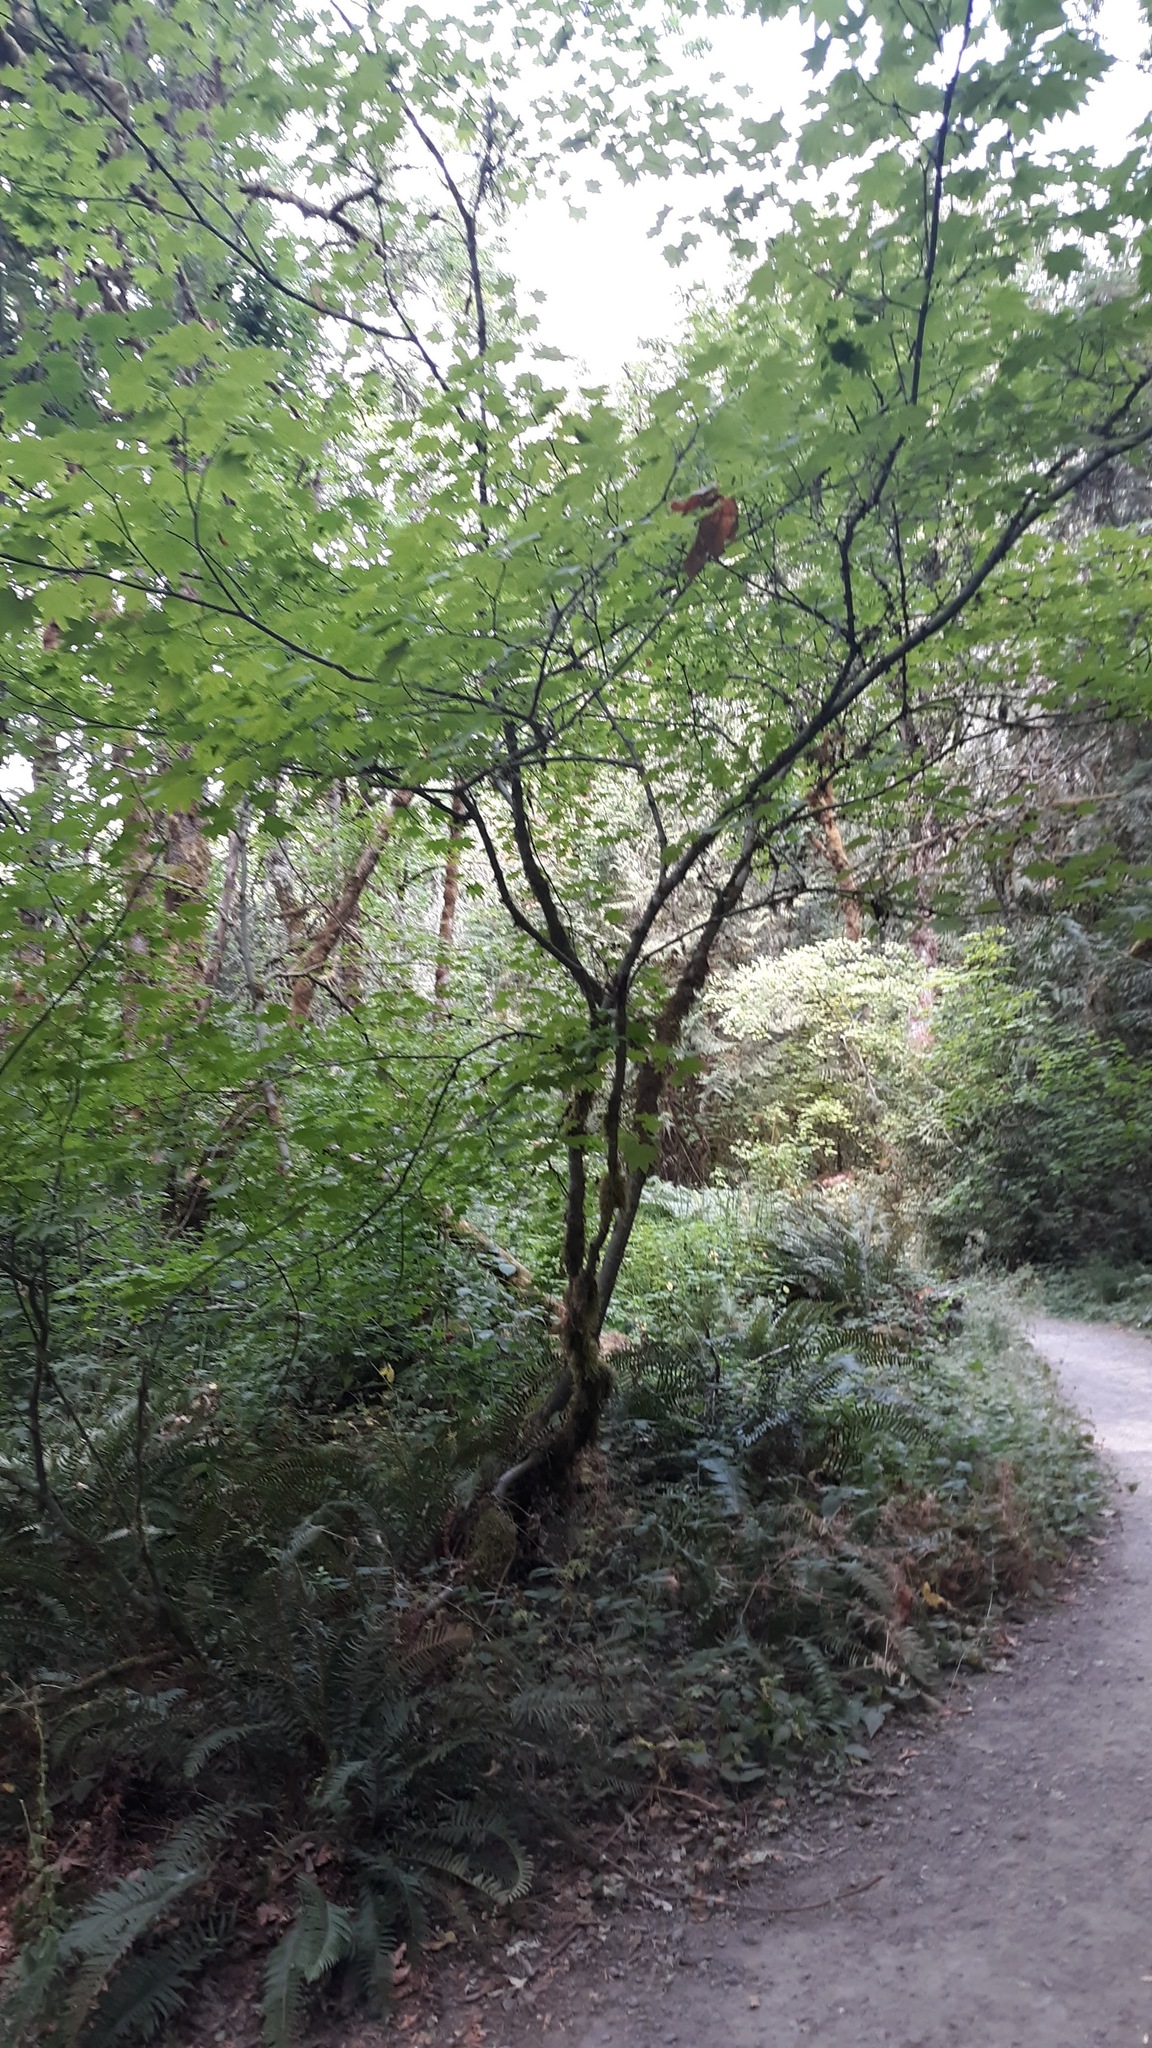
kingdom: Plantae
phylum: Tracheophyta
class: Magnoliopsida
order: Sapindales
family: Sapindaceae
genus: Acer
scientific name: Acer circinatum
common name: Vine maple
